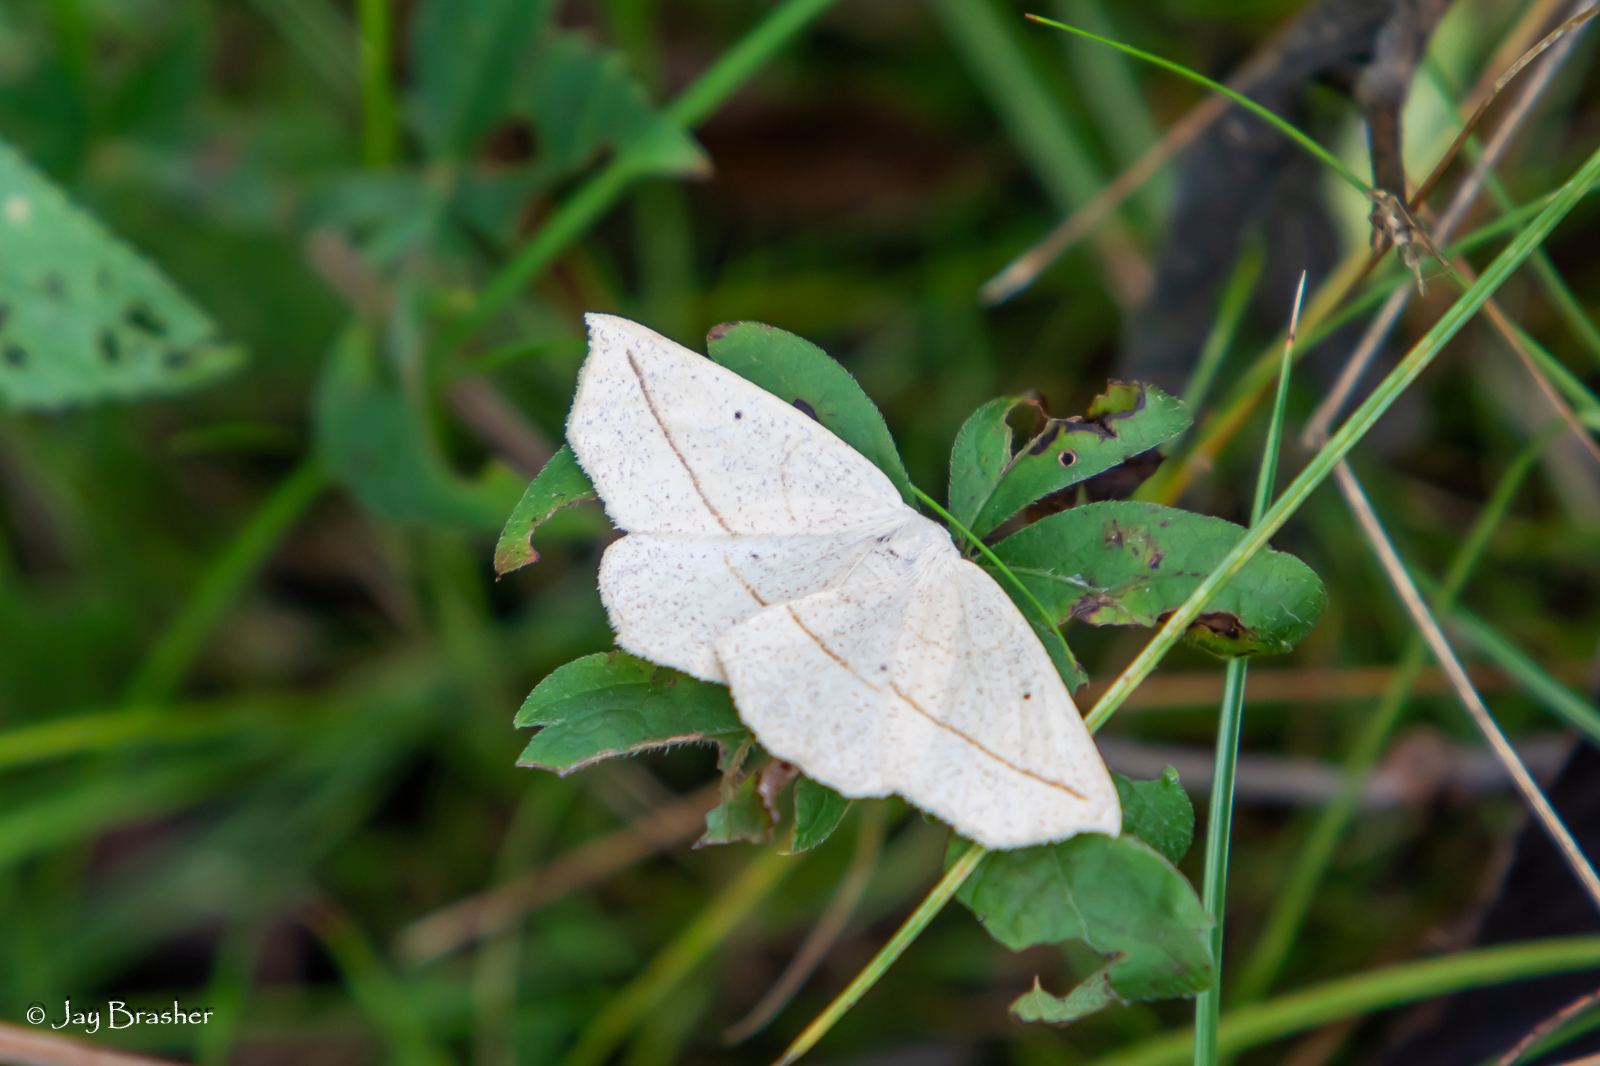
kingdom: Animalia
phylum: Arthropoda
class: Insecta
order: Lepidoptera
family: Geometridae
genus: Eusarca
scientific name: Eusarca confusaria
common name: Confused eusarca
